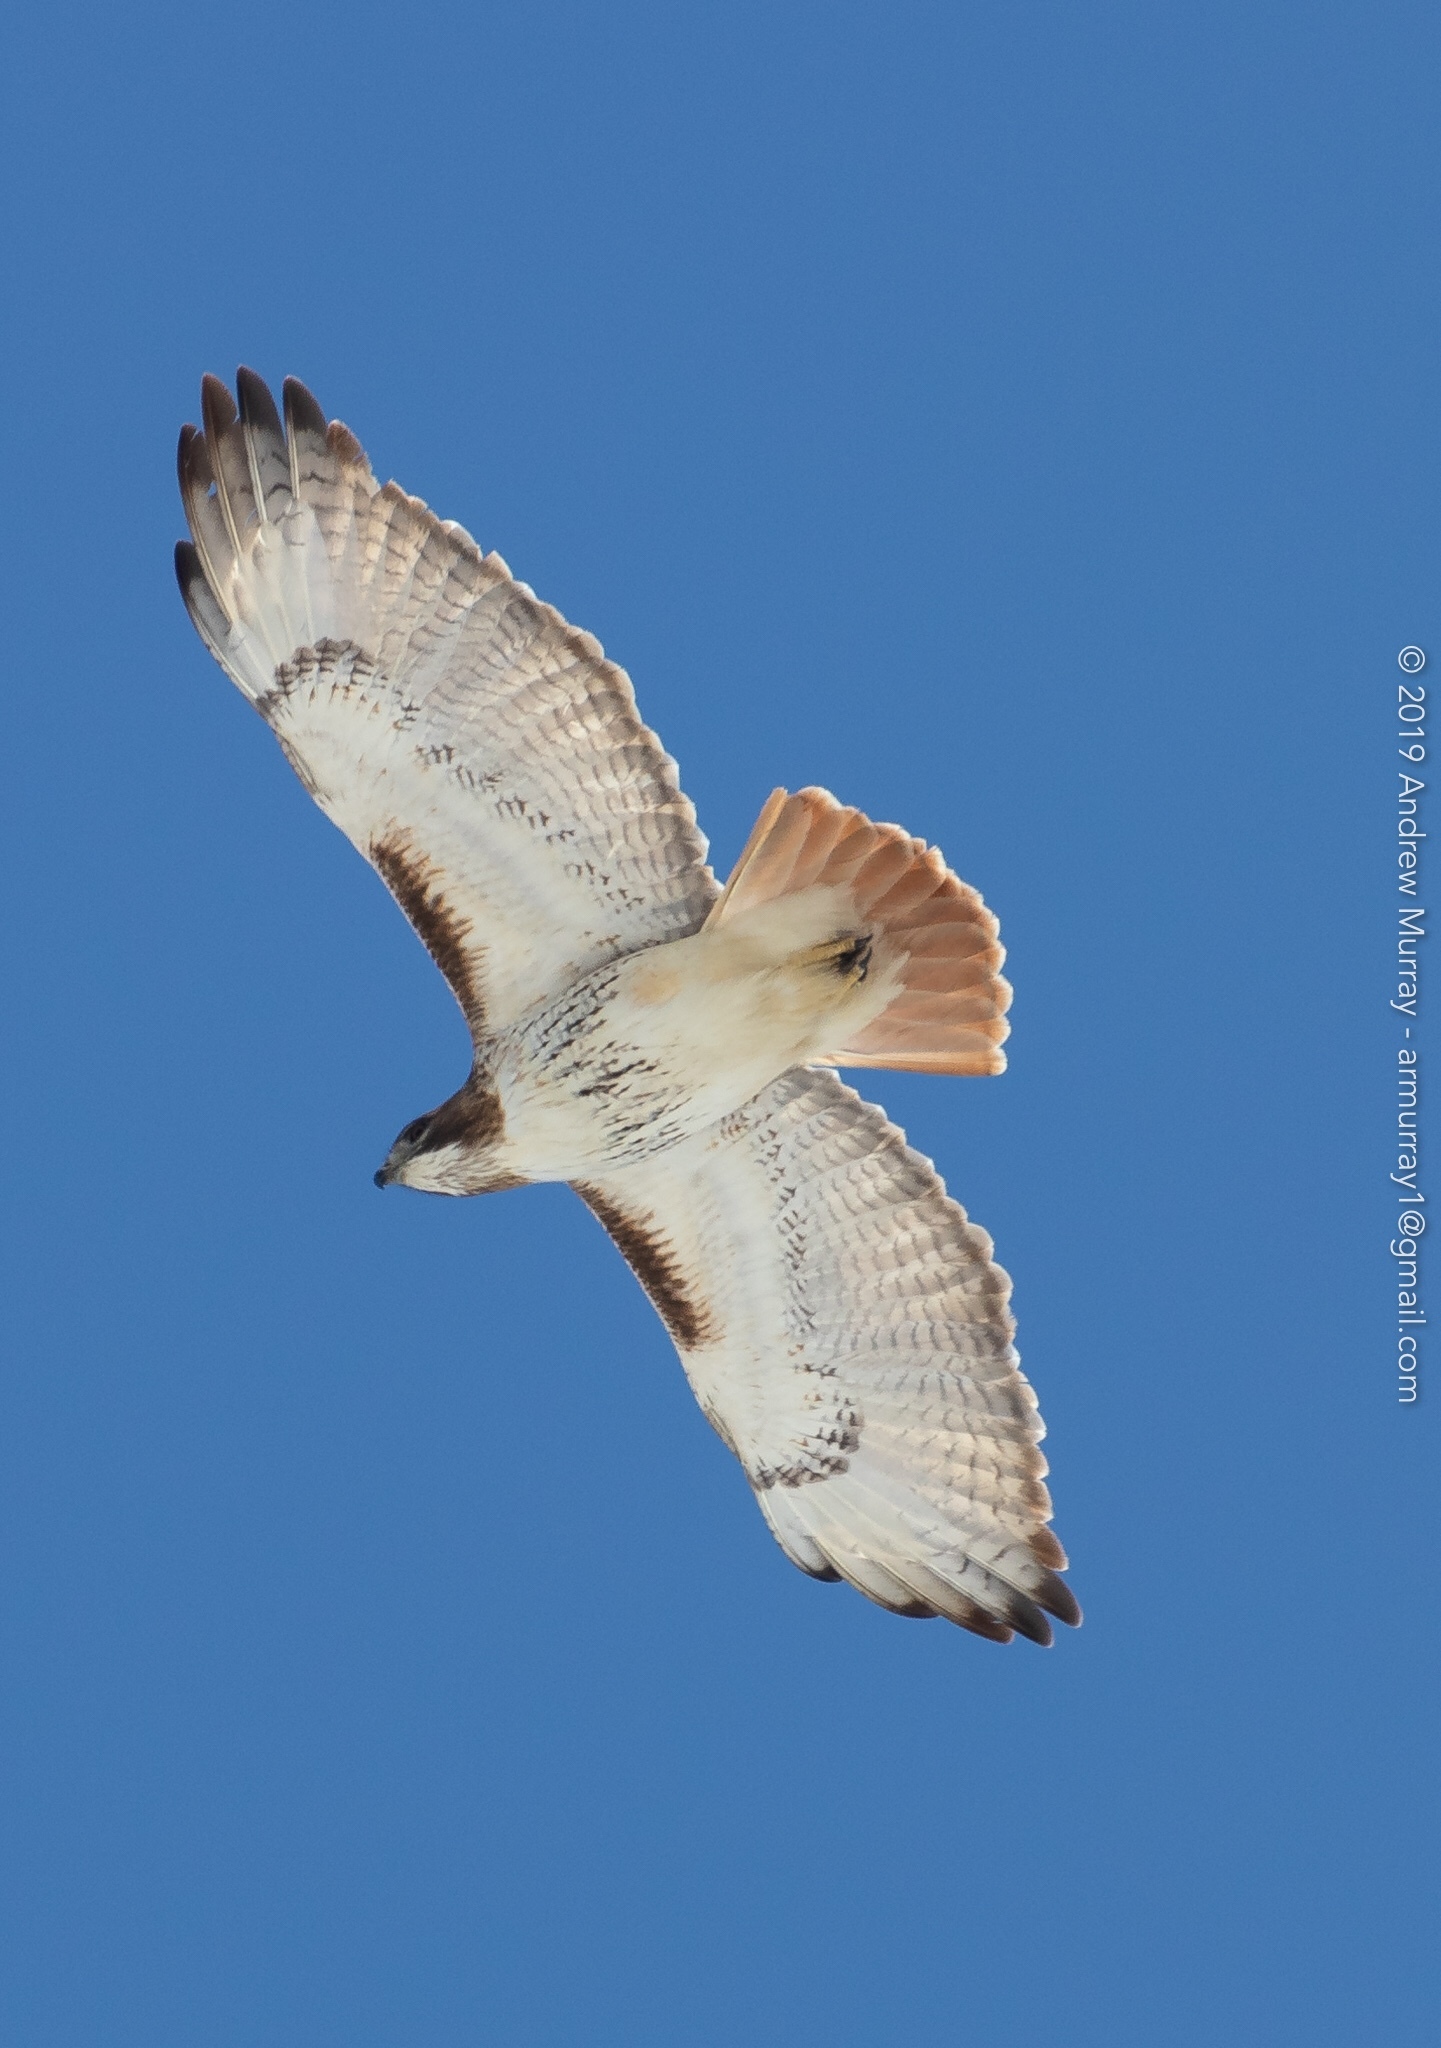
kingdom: Animalia
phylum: Chordata
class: Aves
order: Accipitriformes
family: Accipitridae
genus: Buteo
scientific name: Buteo jamaicensis
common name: Red-tailed hawk
